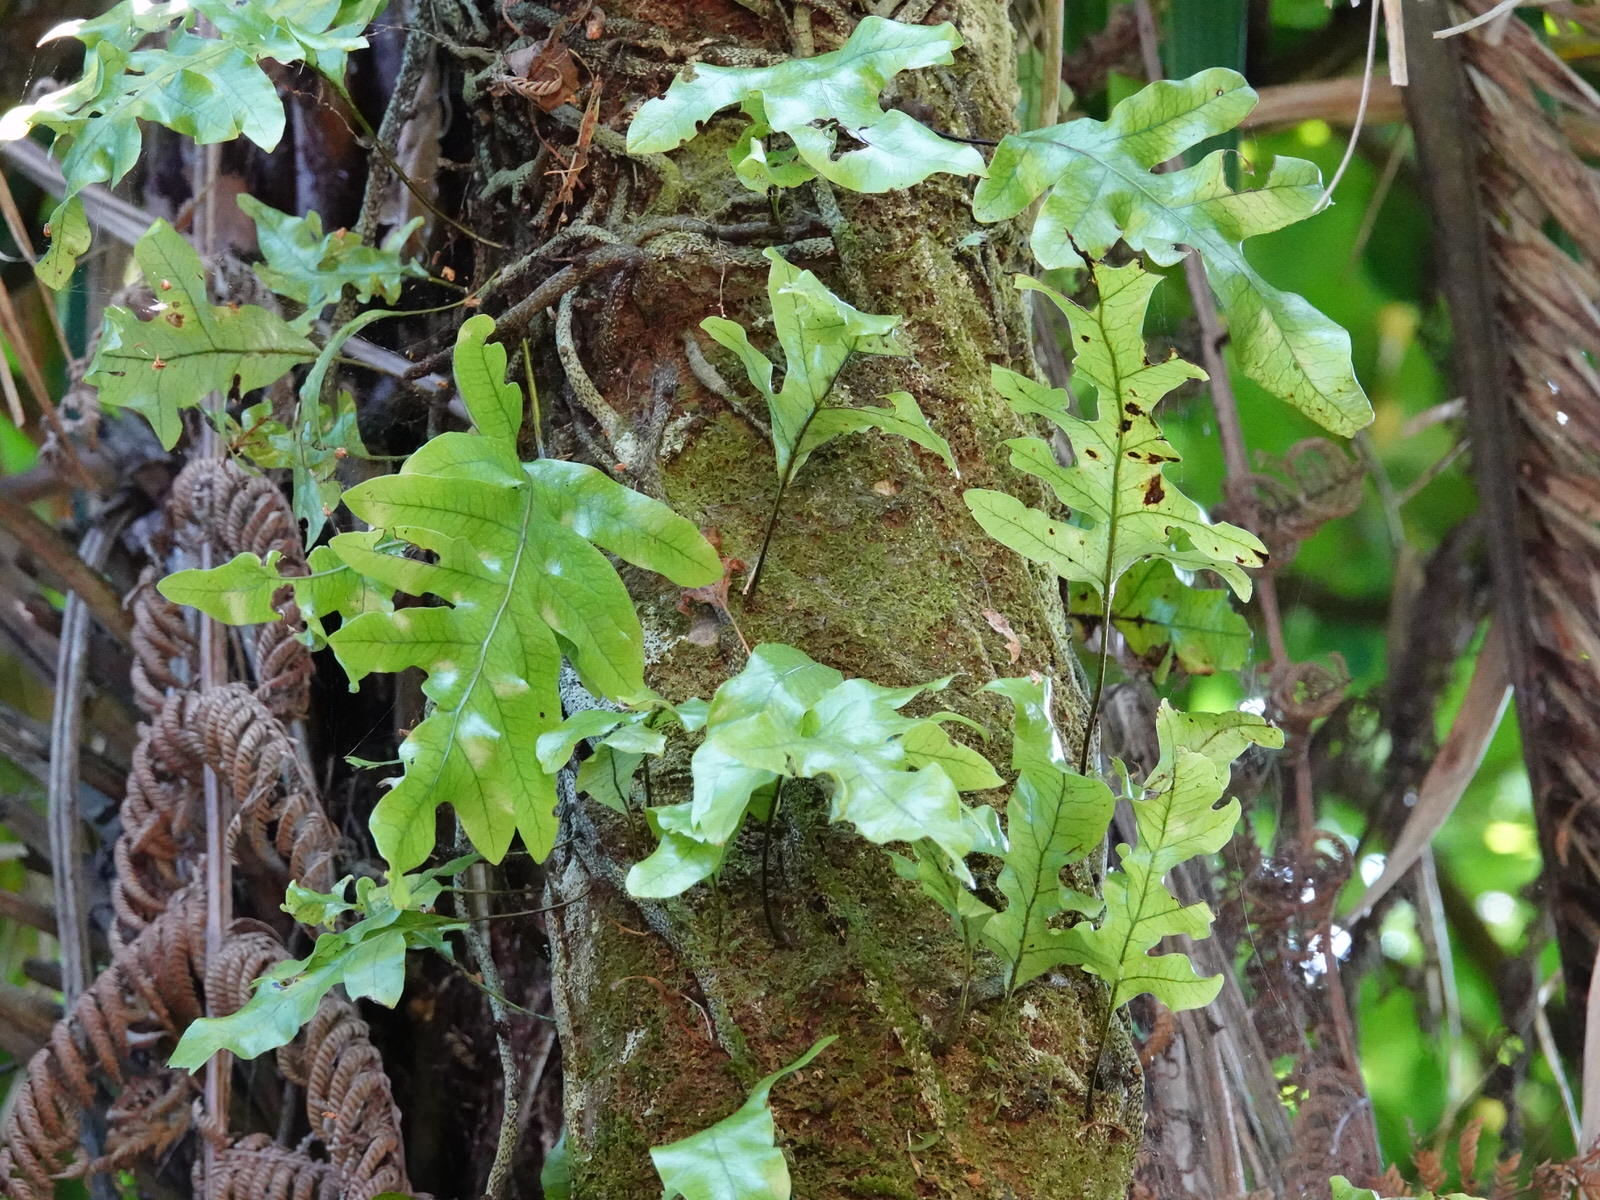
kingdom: Plantae
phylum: Tracheophyta
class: Polypodiopsida
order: Polypodiales
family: Polypodiaceae
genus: Lecanopteris
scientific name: Lecanopteris pustulata
